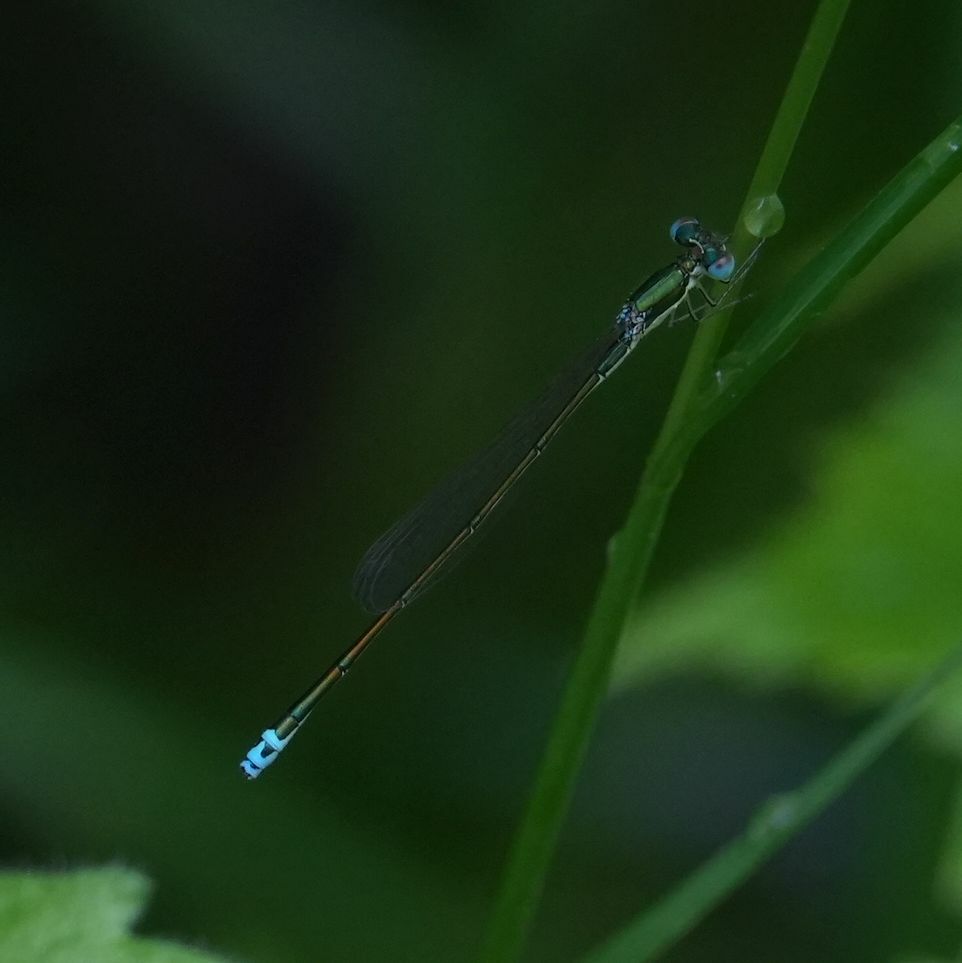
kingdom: Animalia
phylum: Arthropoda
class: Insecta
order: Odonata
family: Coenagrionidae
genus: Nehalennia
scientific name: Nehalennia irene
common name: Sedge sprite
